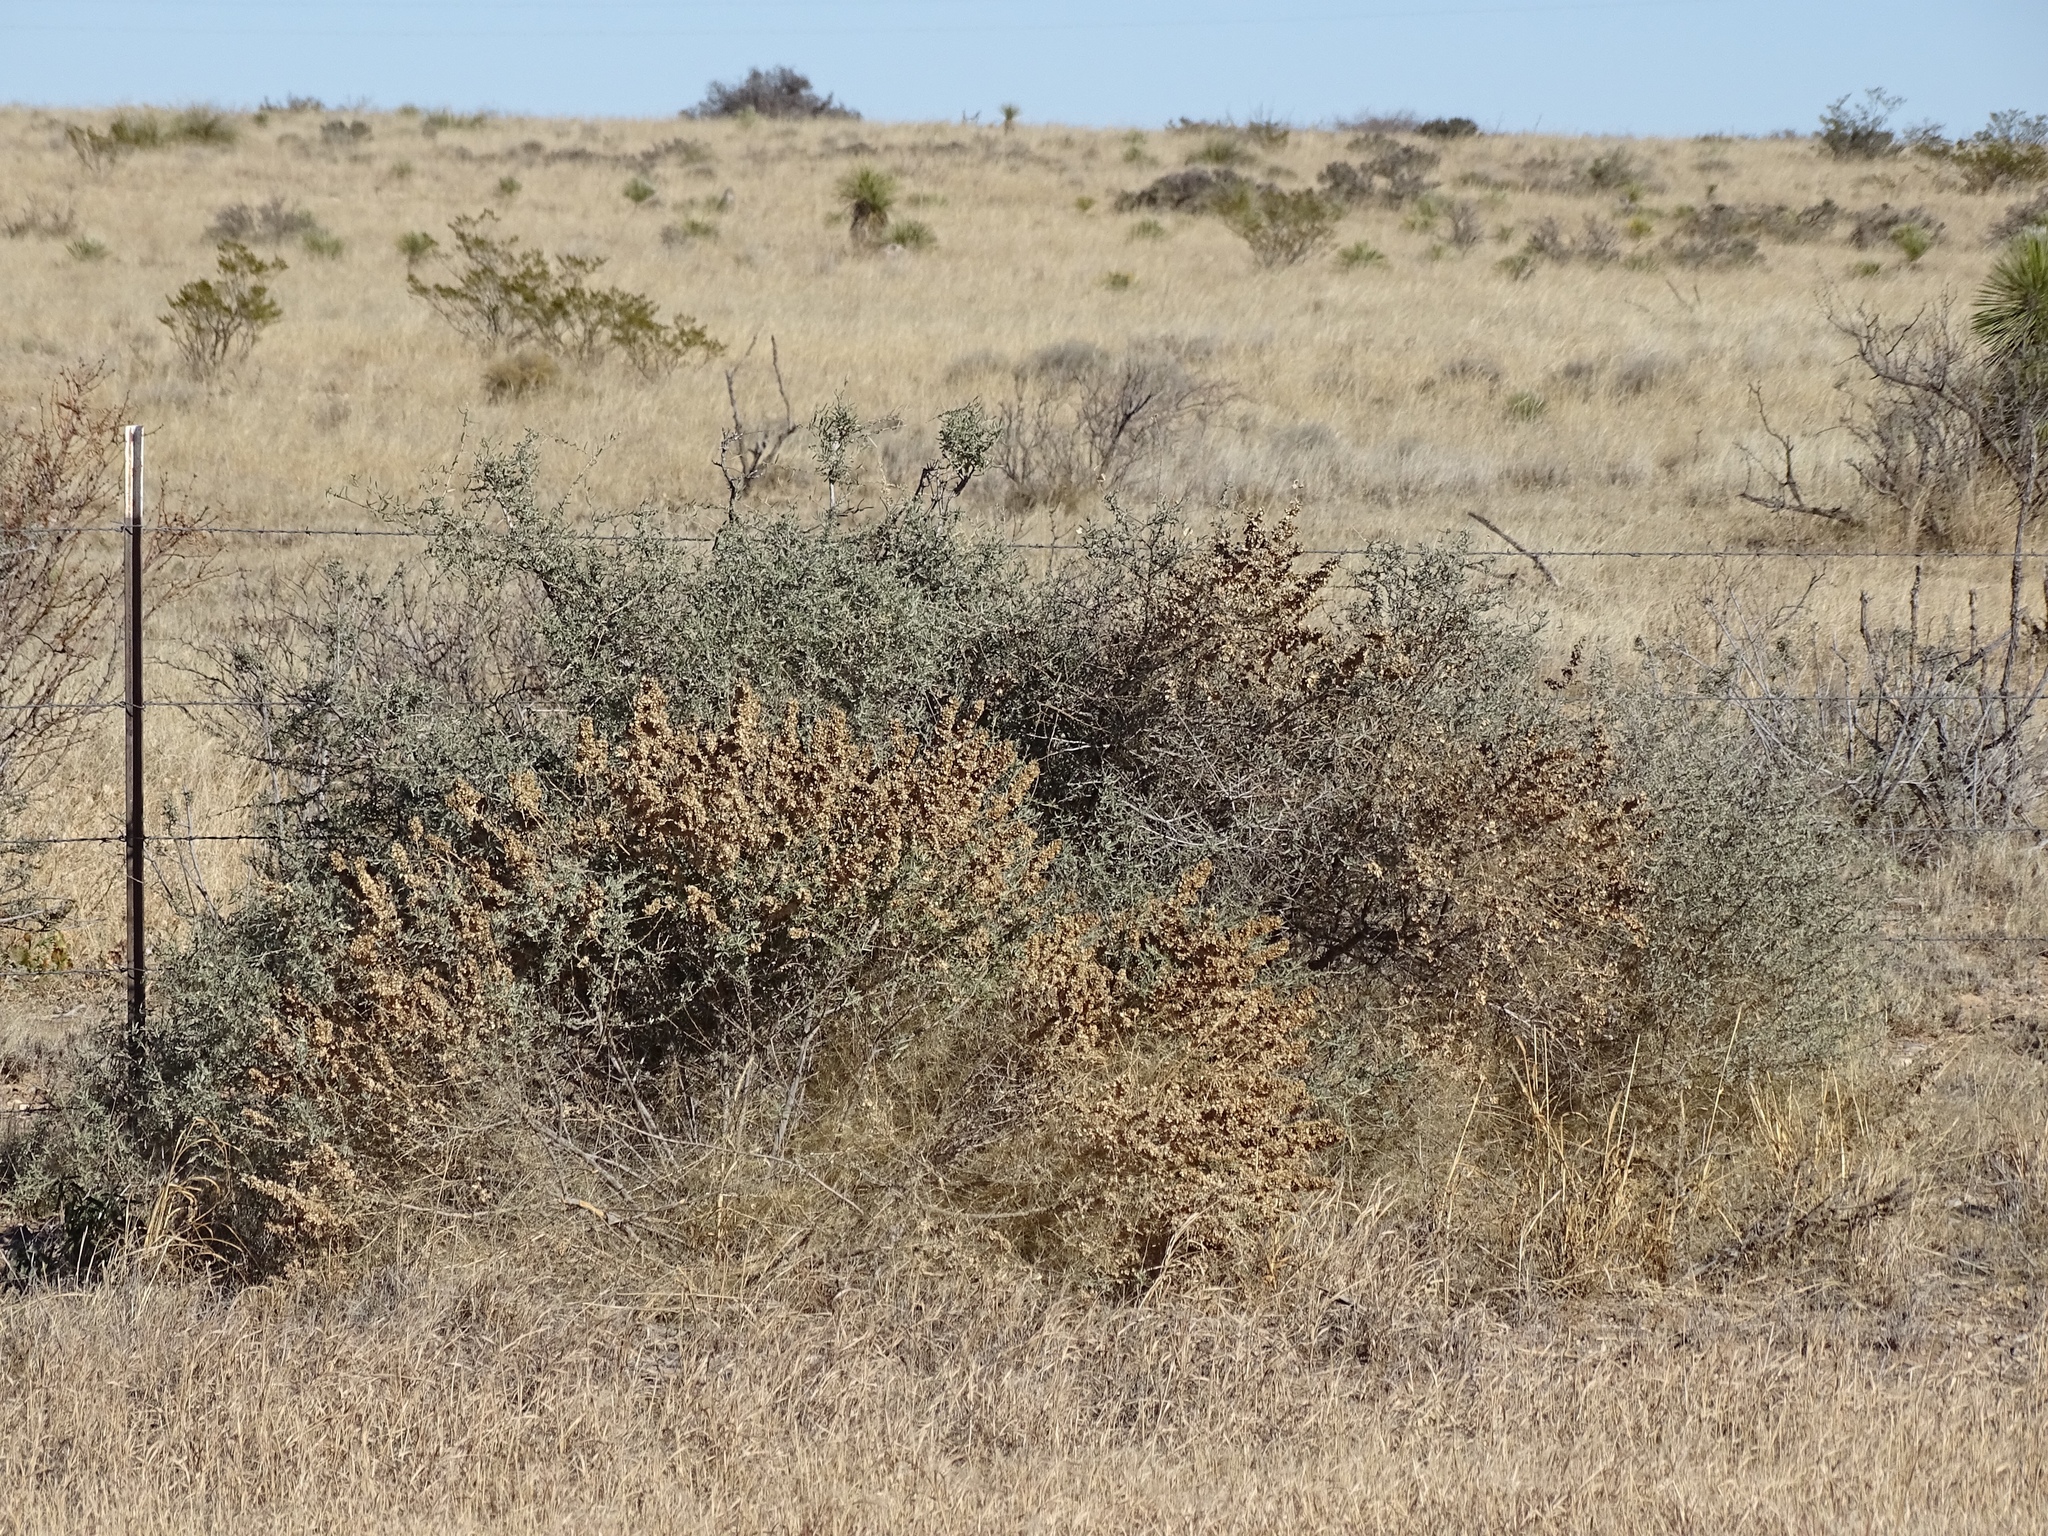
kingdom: Plantae
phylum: Tracheophyta
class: Magnoliopsida
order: Caryophyllales
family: Amaranthaceae
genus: Atriplex
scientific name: Atriplex canescens
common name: Four-wing saltbush
